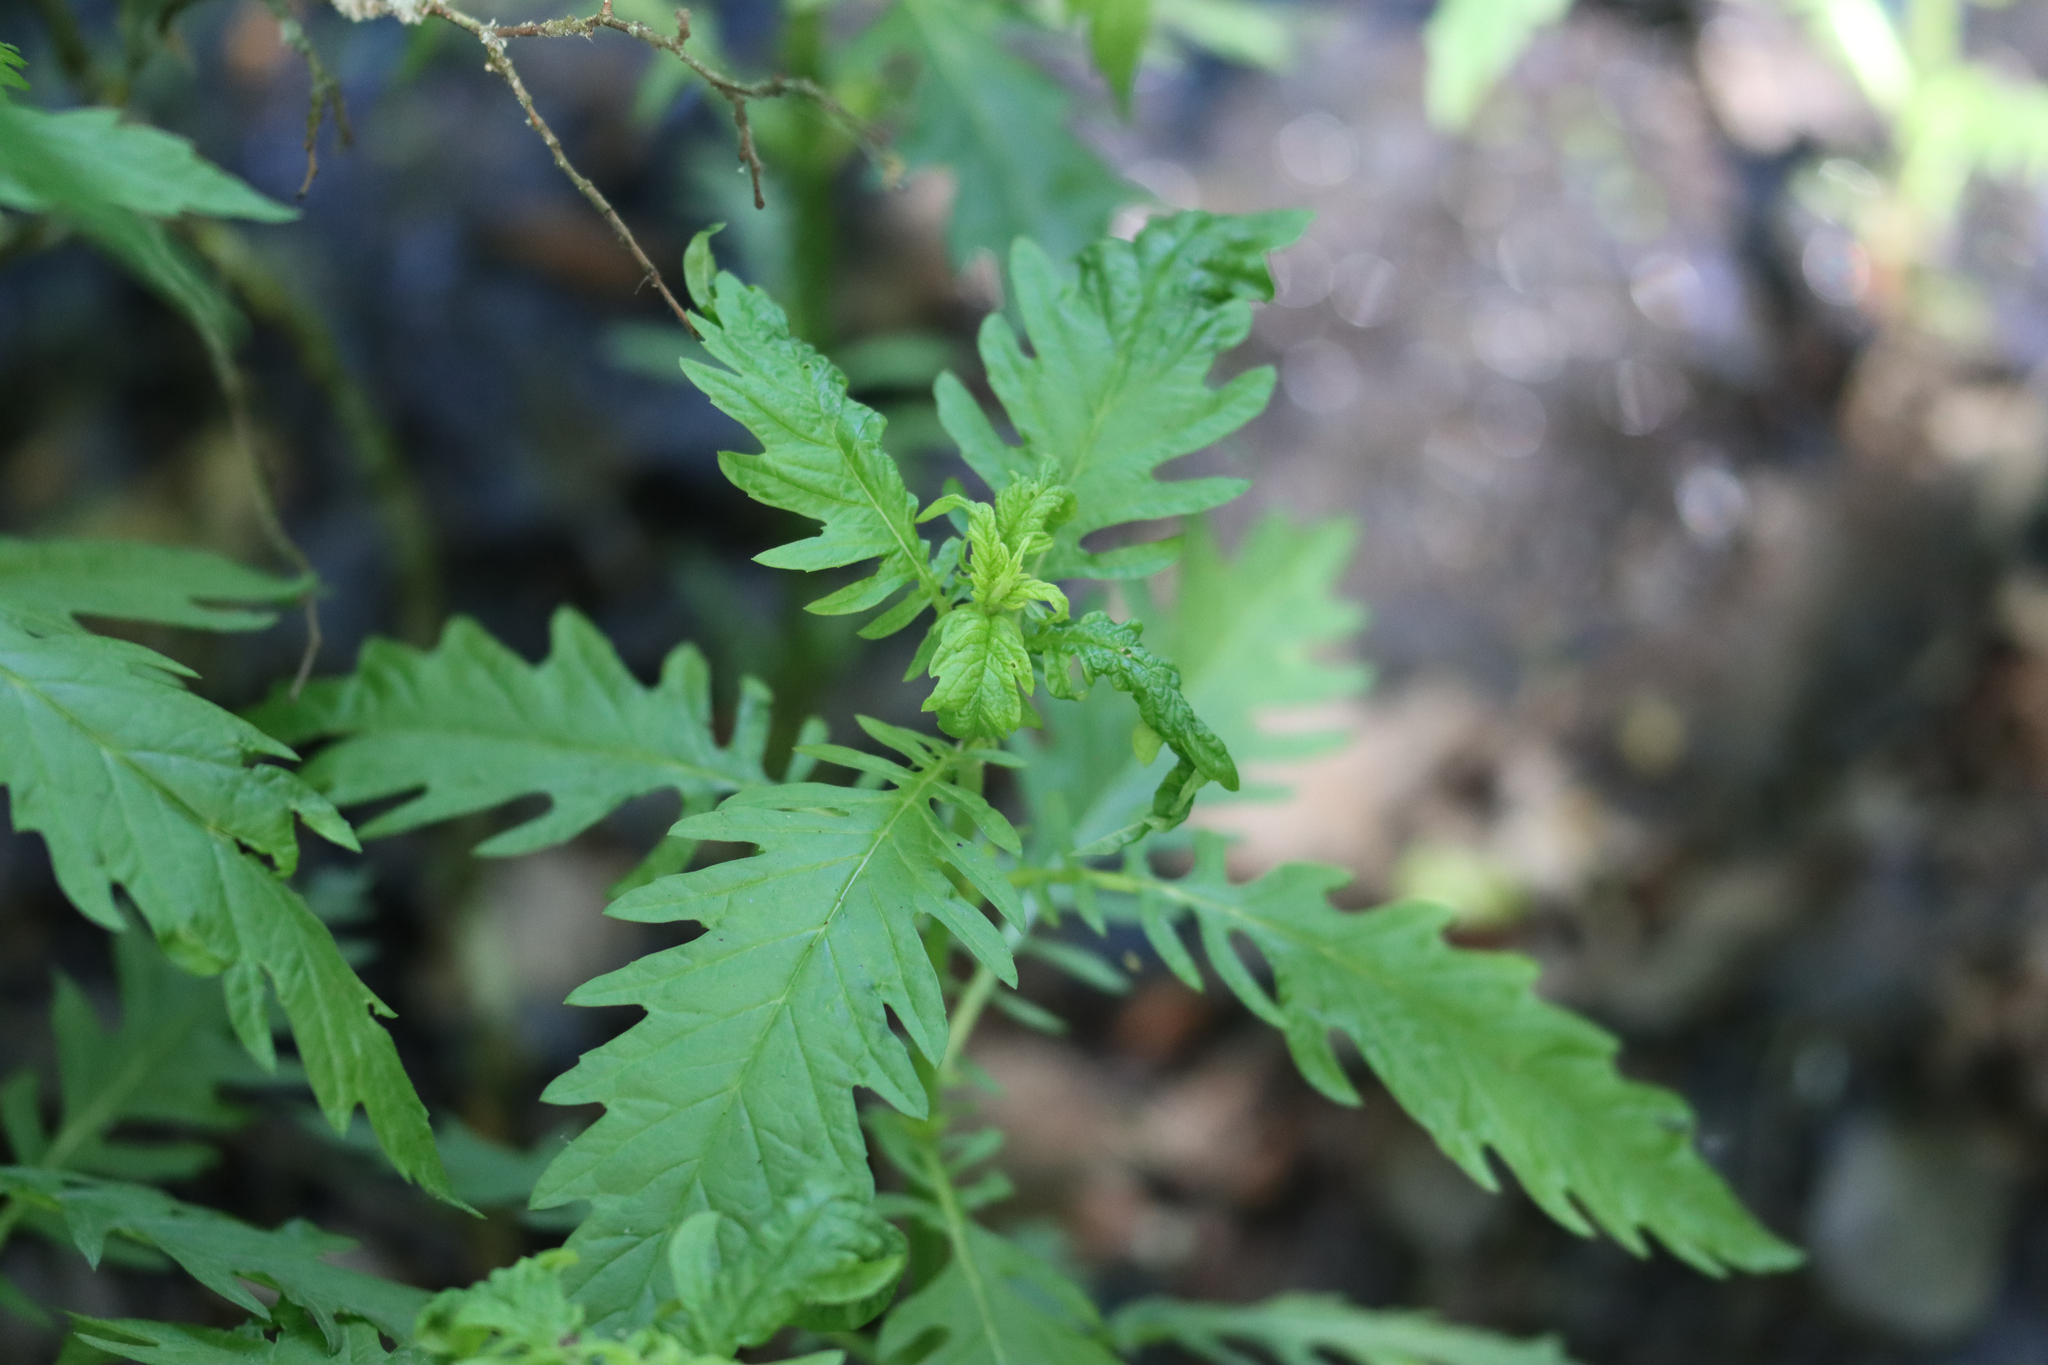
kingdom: Plantae
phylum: Tracheophyta
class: Magnoliopsida
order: Lamiales
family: Lamiaceae
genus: Lycopus
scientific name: Lycopus europaeus
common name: European bugleweed
